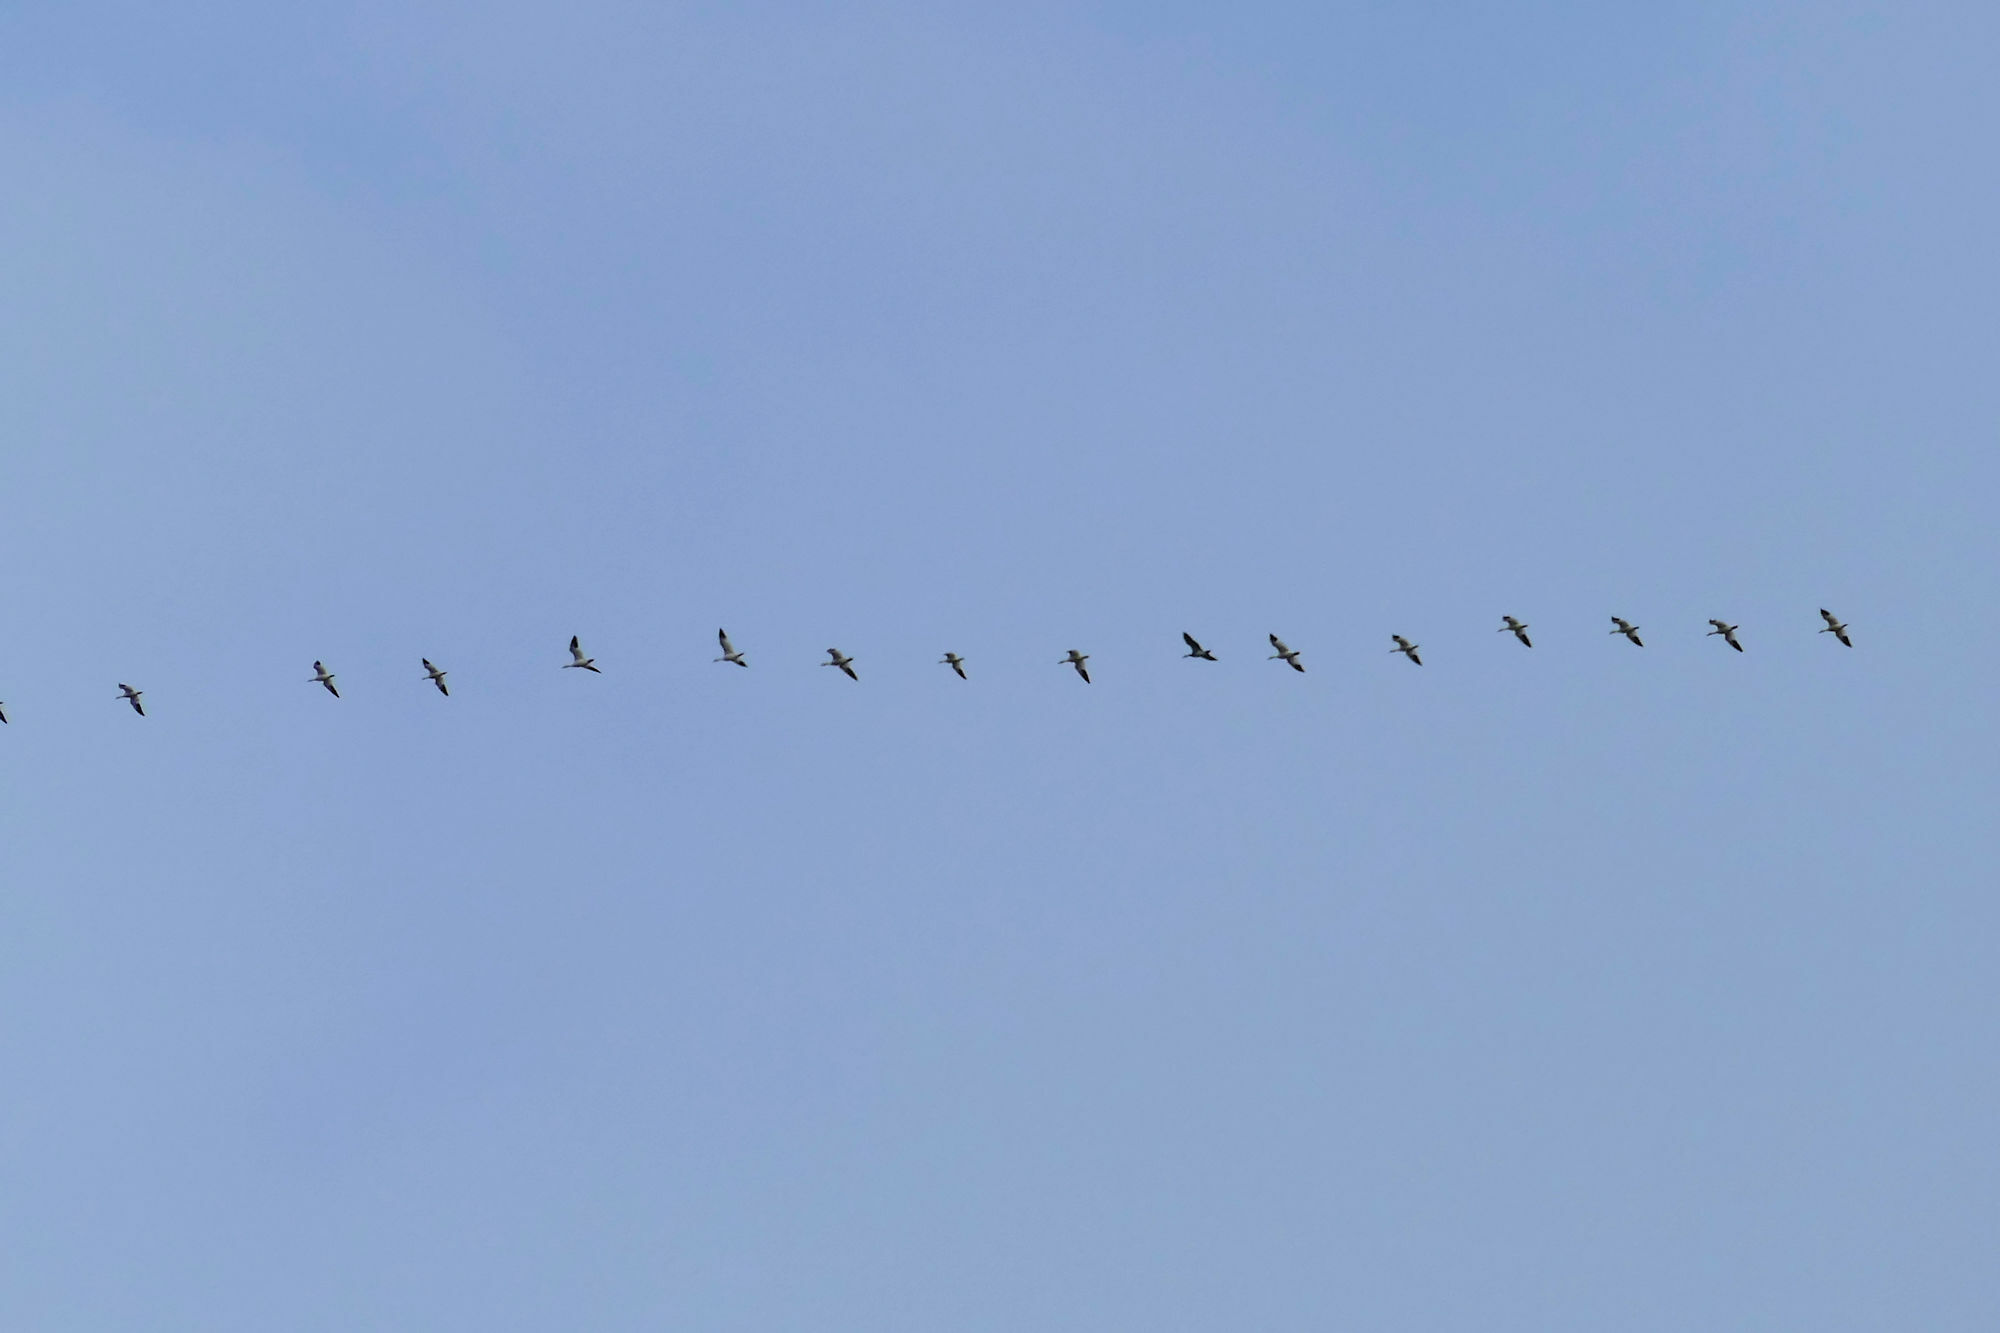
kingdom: Animalia
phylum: Chordata
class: Aves
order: Anseriformes
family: Anatidae
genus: Anser
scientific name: Anser caerulescens
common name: Snow goose
